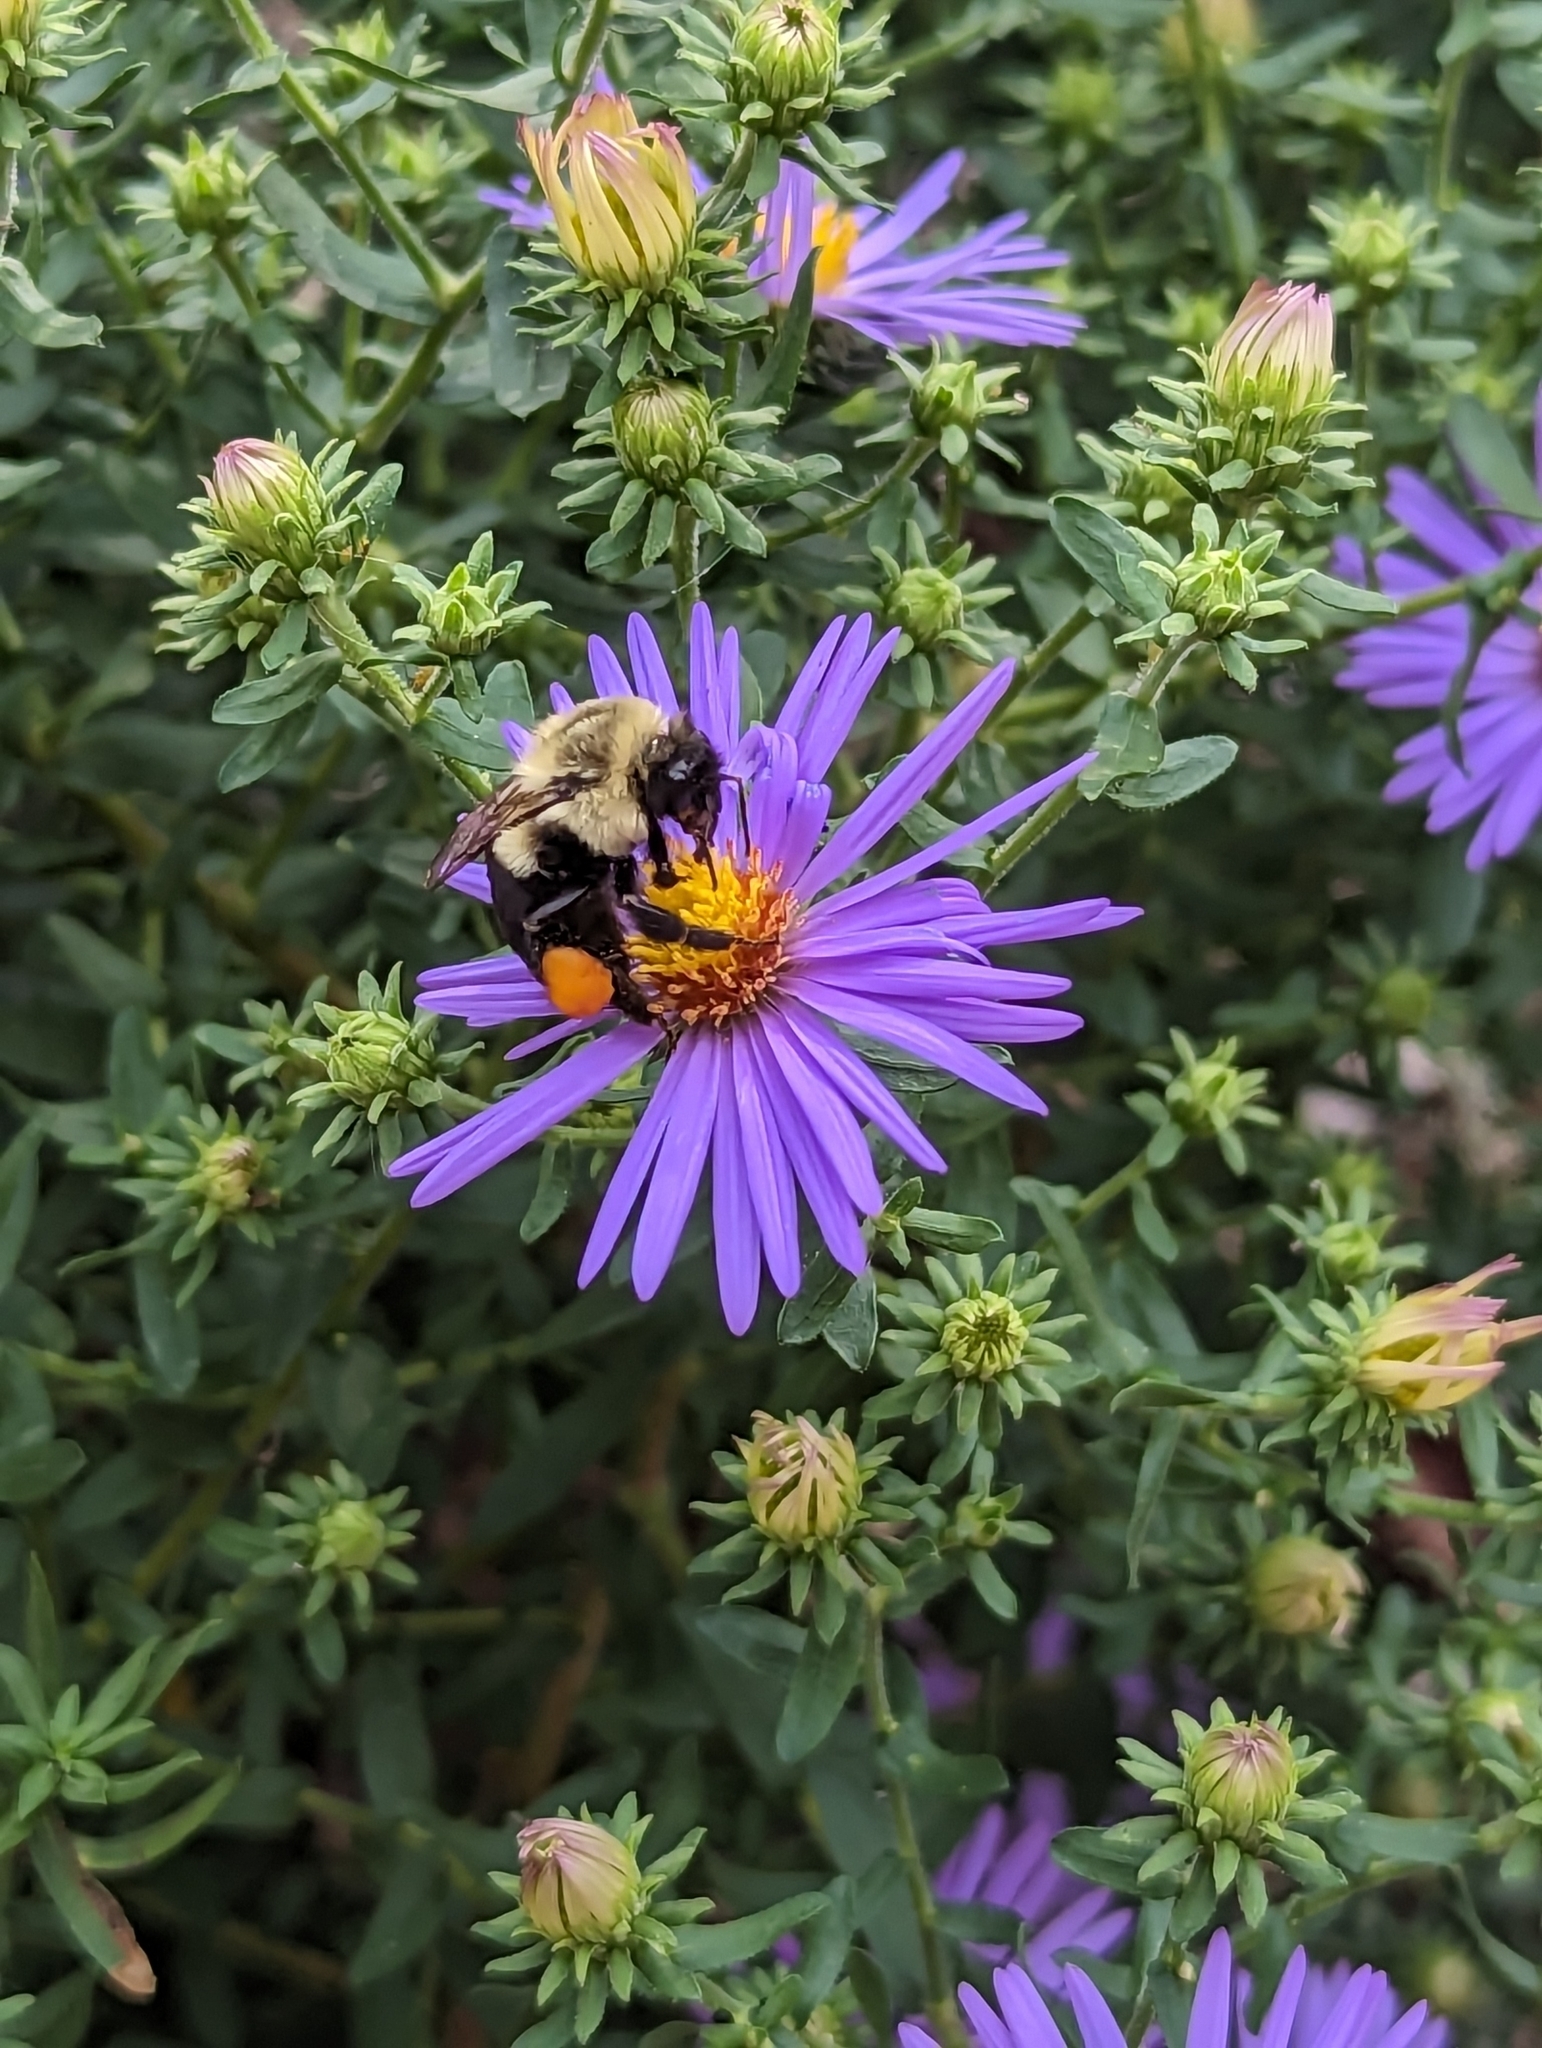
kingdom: Animalia
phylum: Arthropoda
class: Insecta
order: Hymenoptera
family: Apidae
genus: Bombus
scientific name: Bombus impatiens
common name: Common eastern bumble bee
